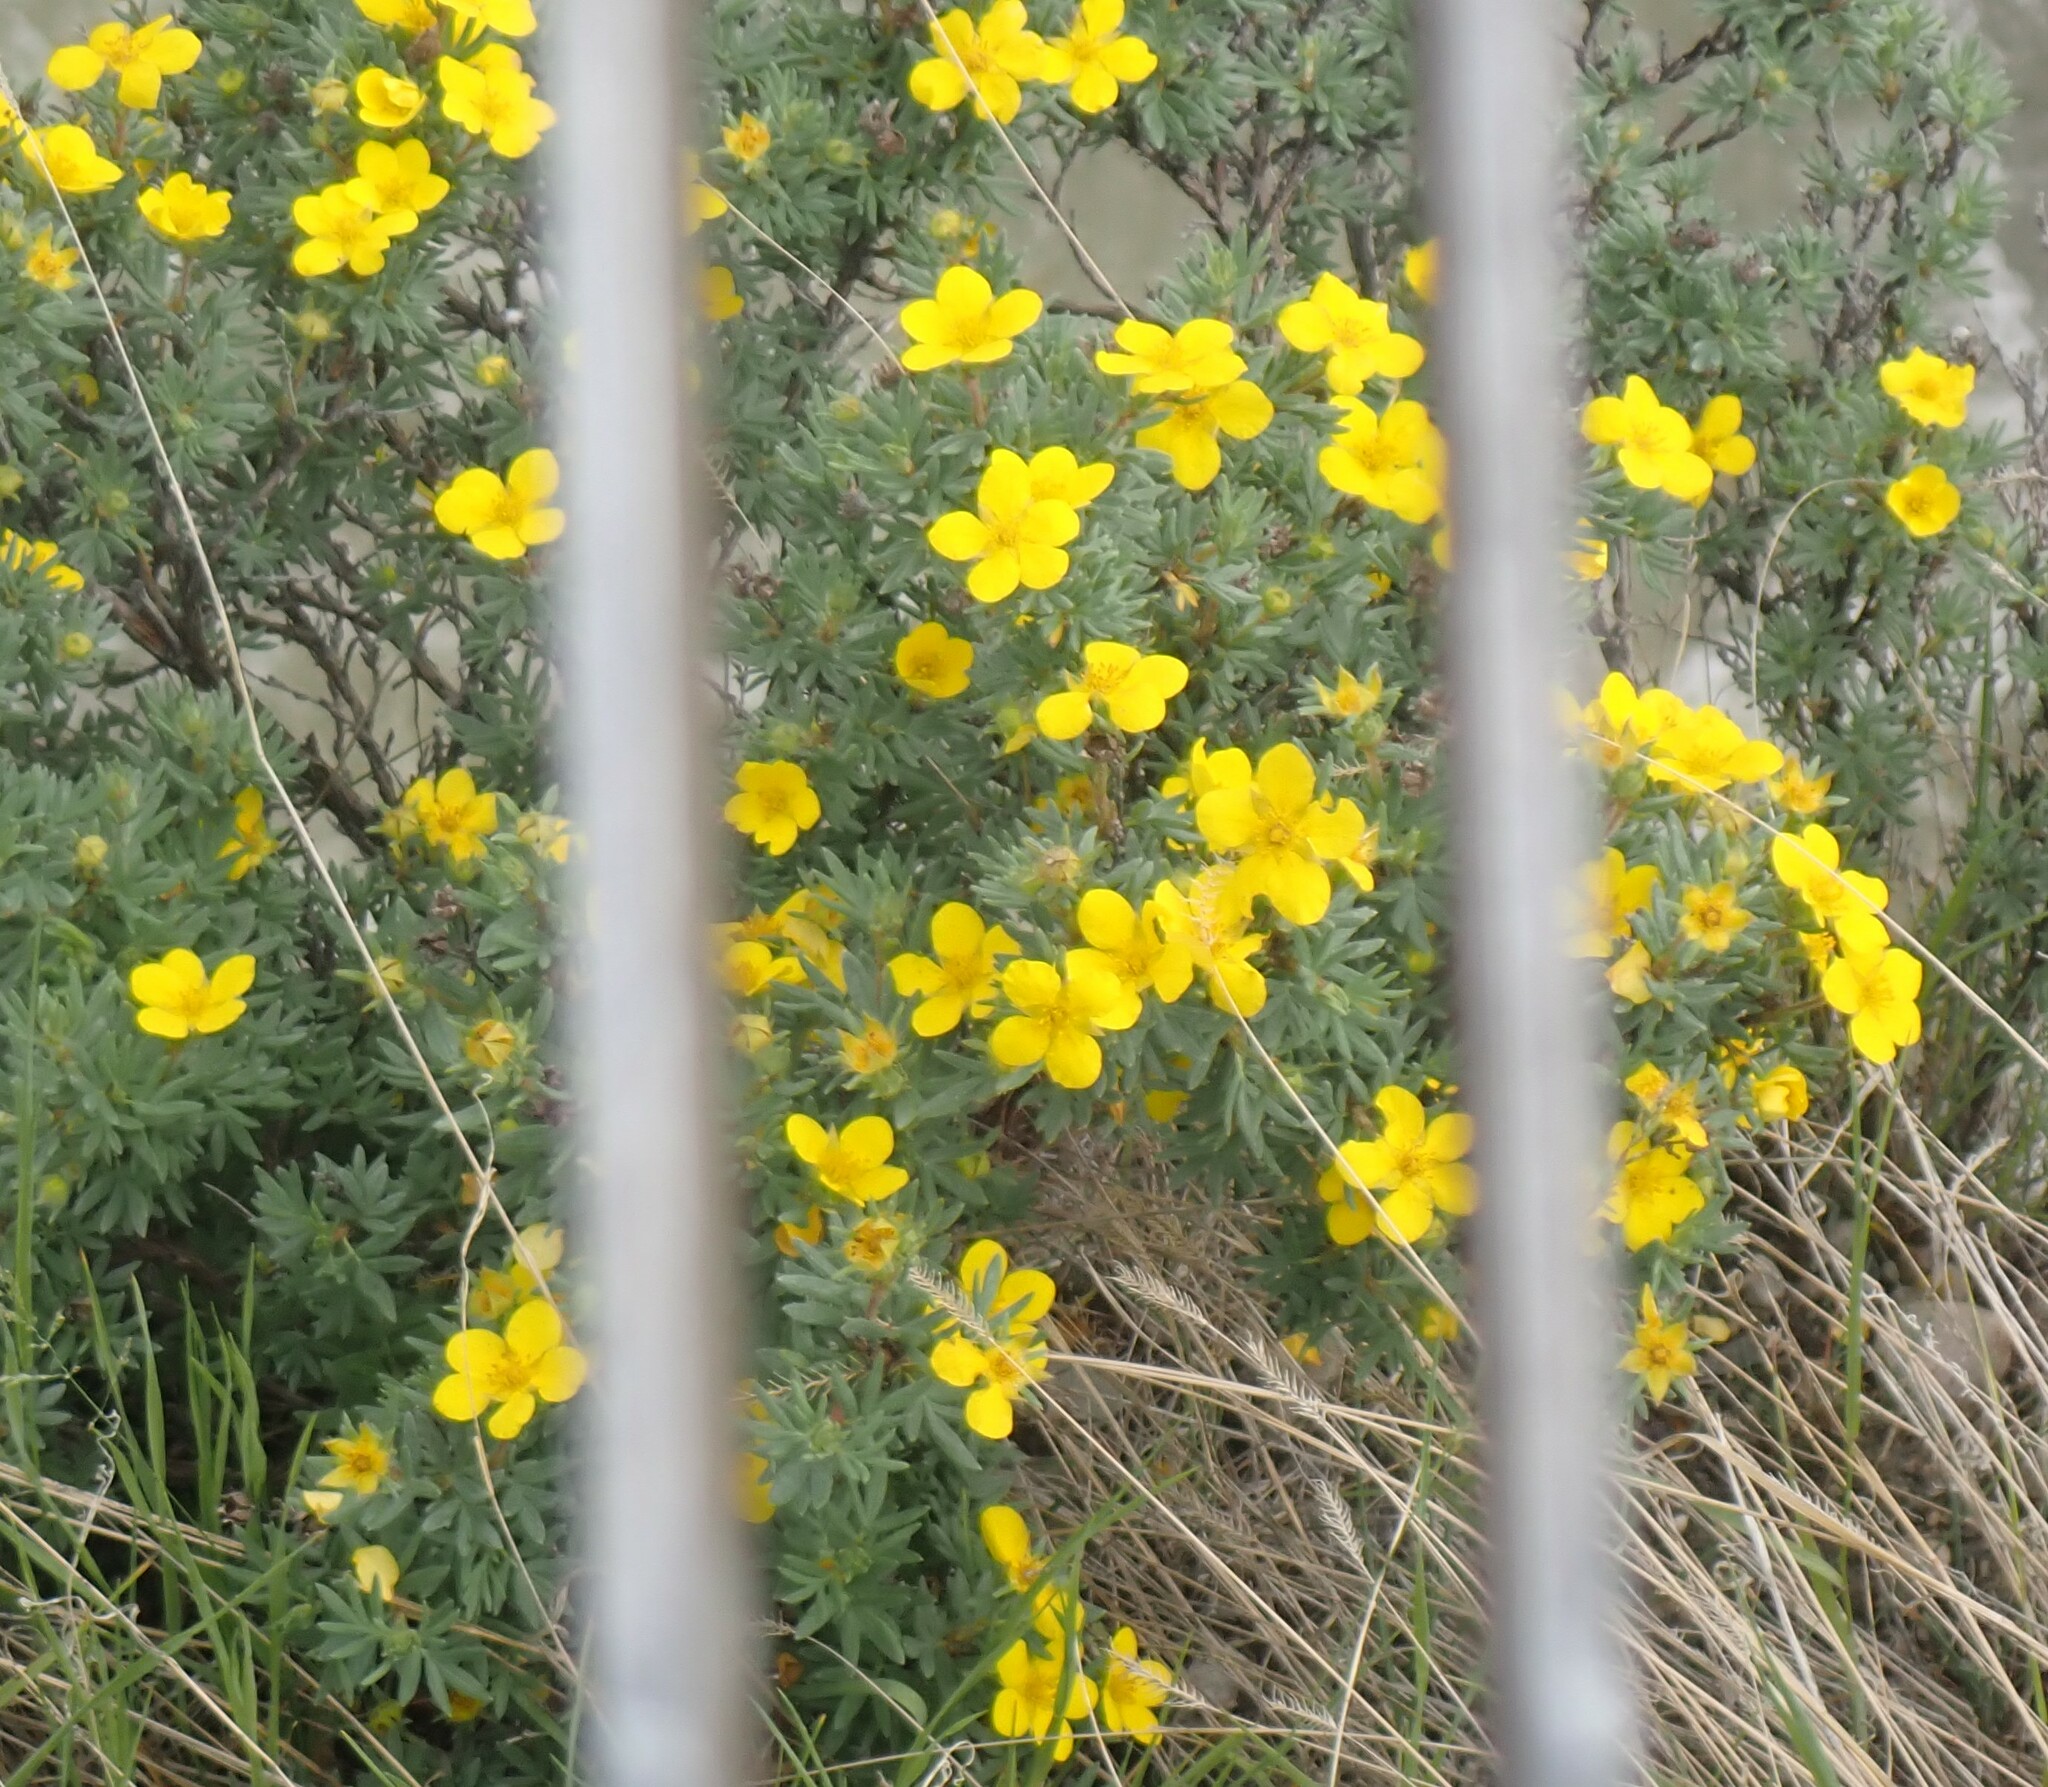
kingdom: Plantae
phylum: Tracheophyta
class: Magnoliopsida
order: Rosales
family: Rosaceae
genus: Dasiphora
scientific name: Dasiphora fruticosa
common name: Shrubby cinquefoil
